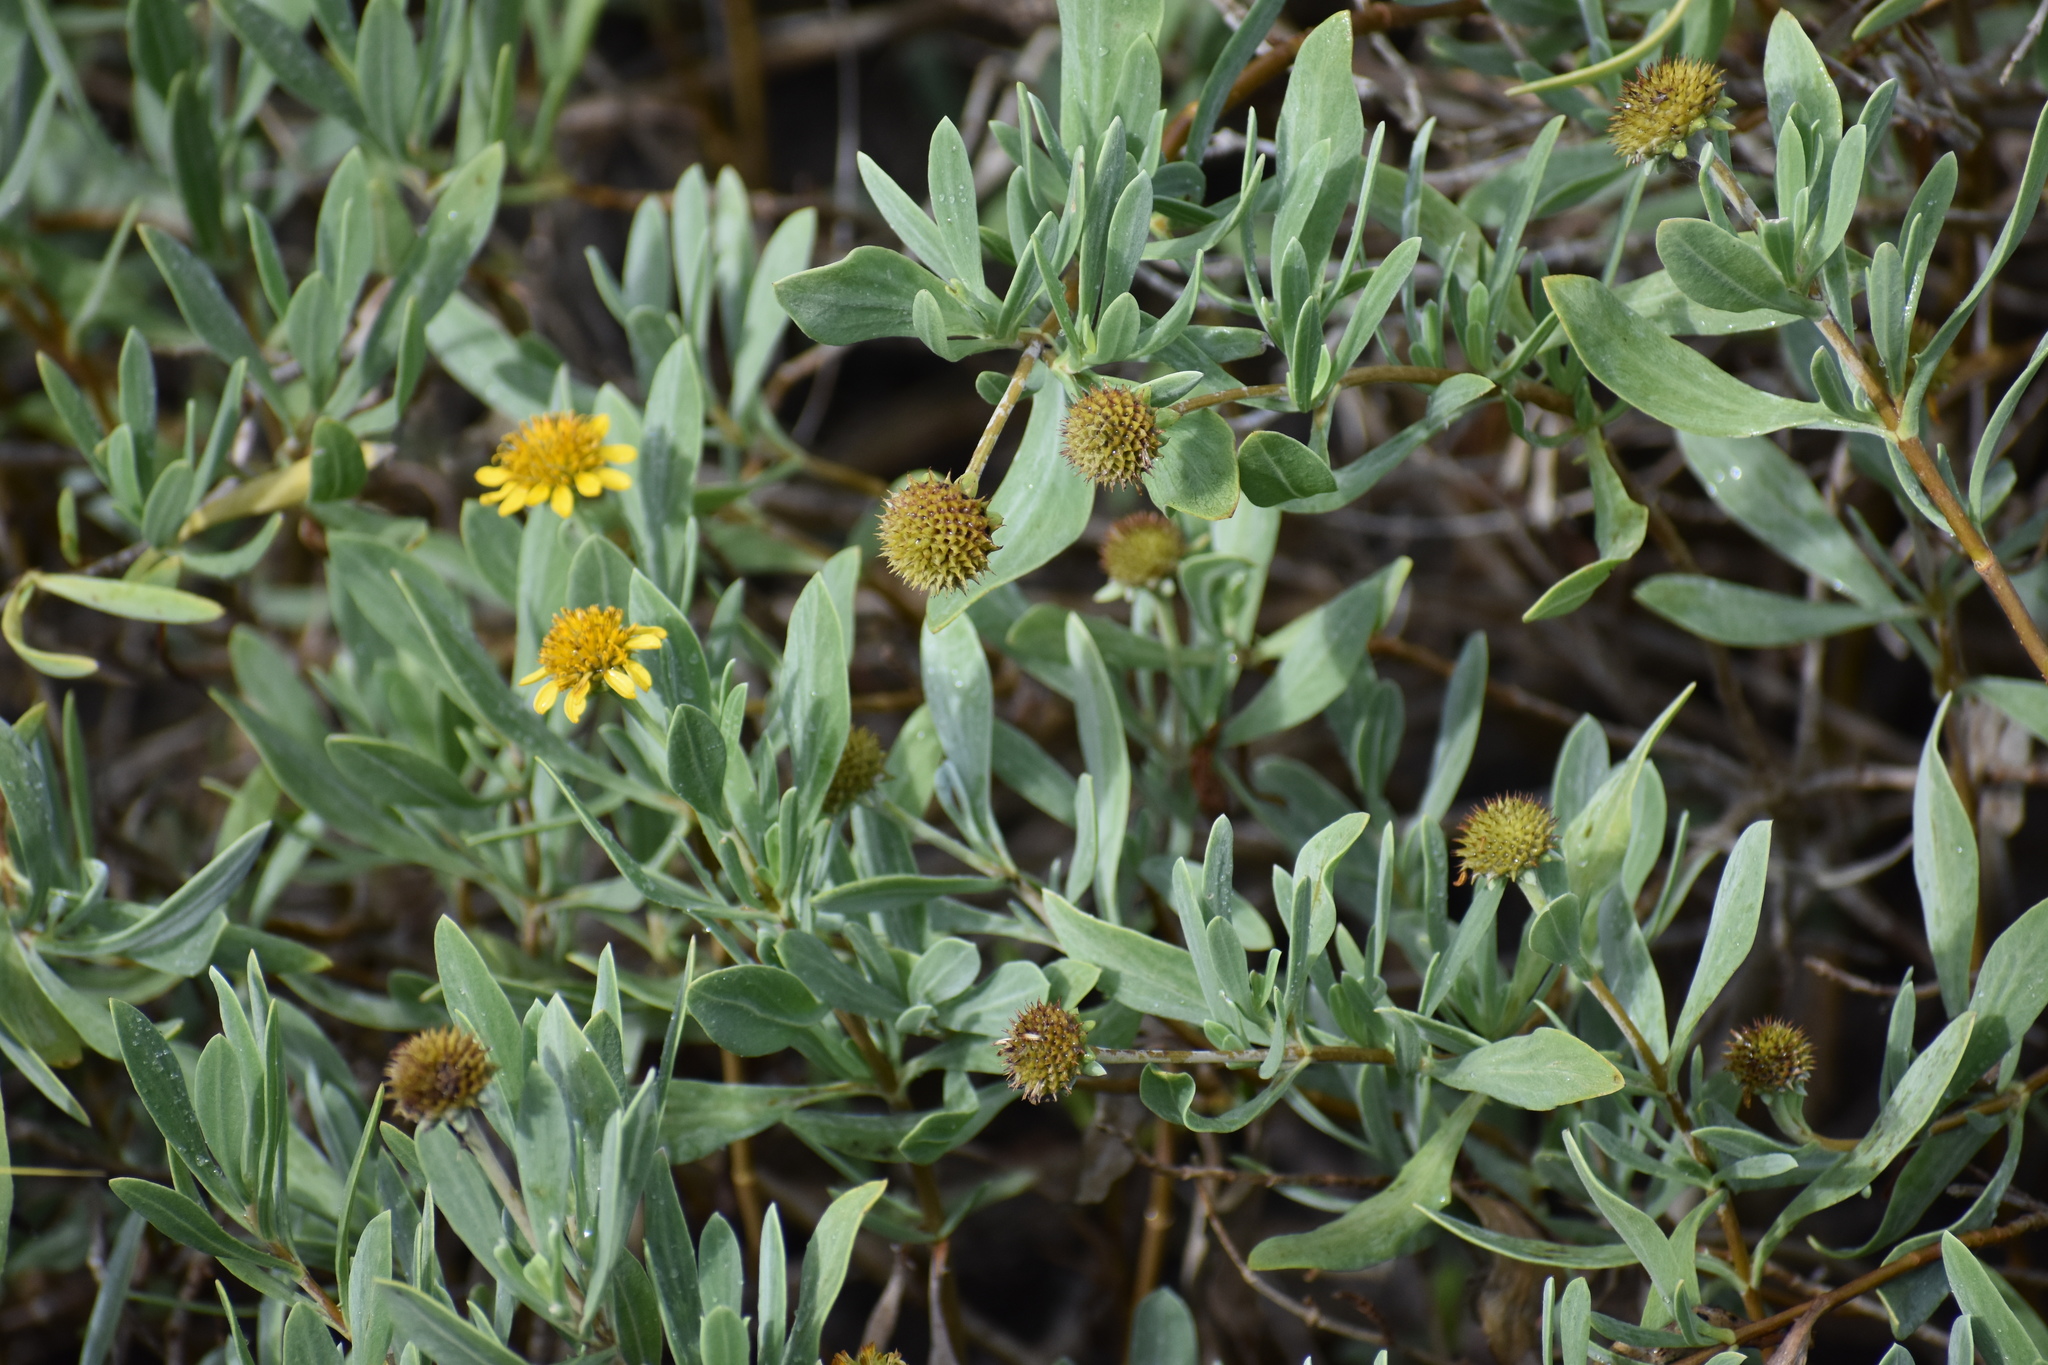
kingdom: Plantae
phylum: Tracheophyta
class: Magnoliopsida
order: Asterales
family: Asteraceae
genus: Borrichia
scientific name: Borrichia frutescens
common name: Sea oxeye
